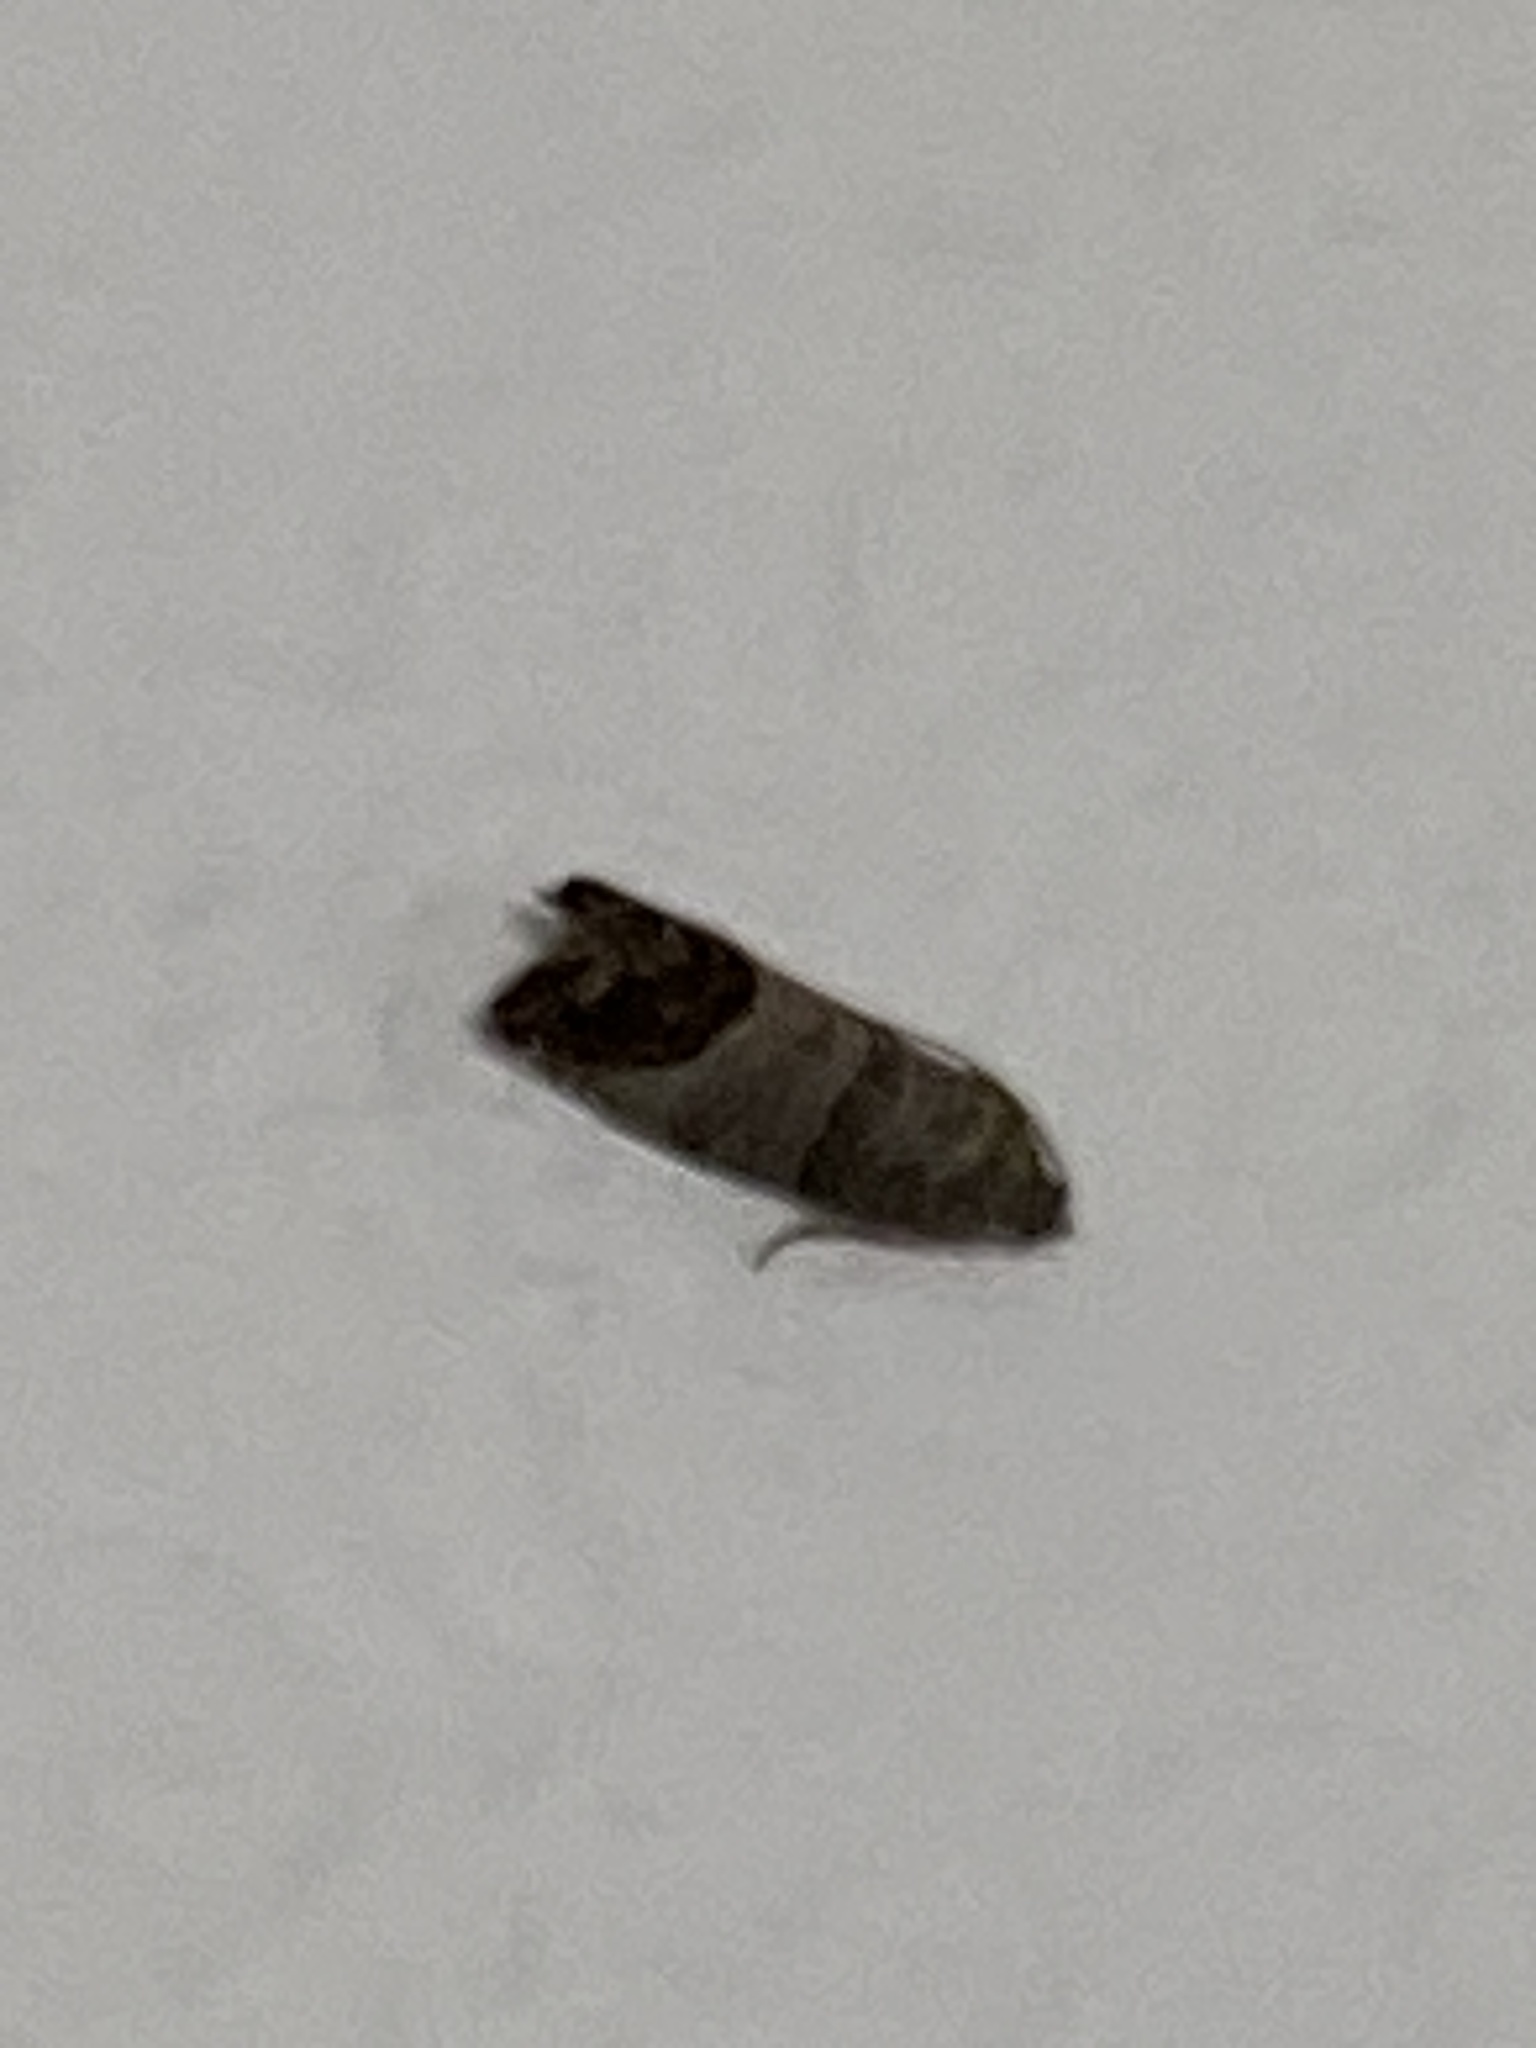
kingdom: Animalia
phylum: Arthropoda
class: Insecta
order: Lepidoptera
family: Tortricidae
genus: Cydia
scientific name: Cydia pomonella
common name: Codling moth
